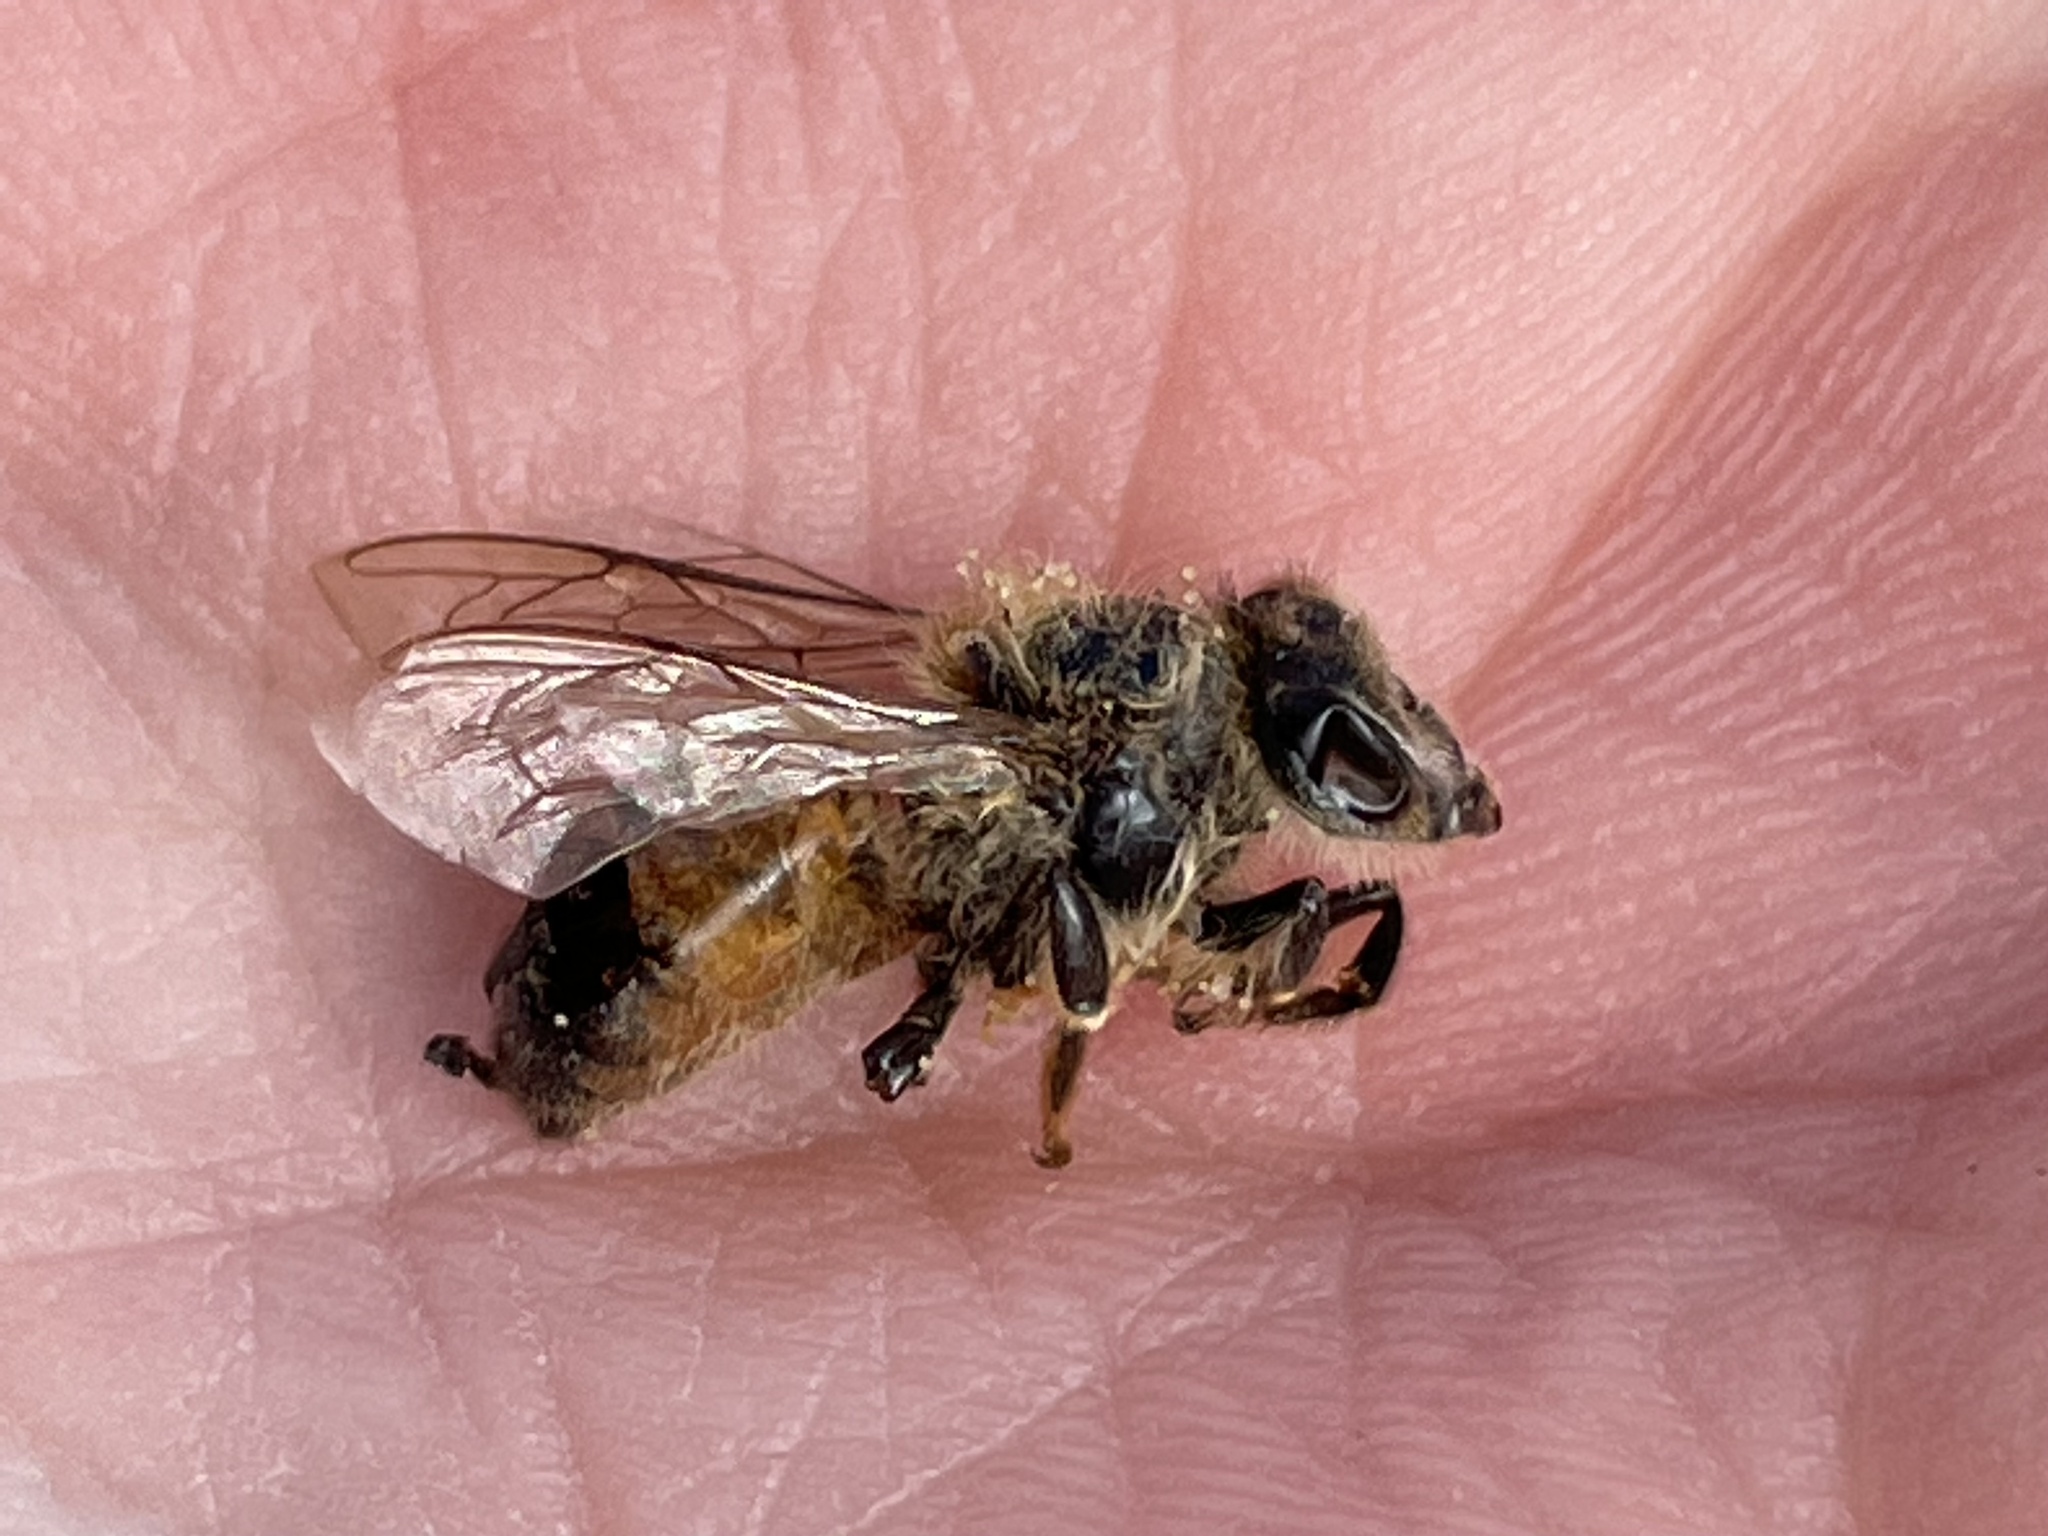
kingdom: Animalia
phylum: Arthropoda
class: Insecta
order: Hymenoptera
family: Apidae
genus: Apis
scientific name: Apis mellifera
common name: Honey bee
